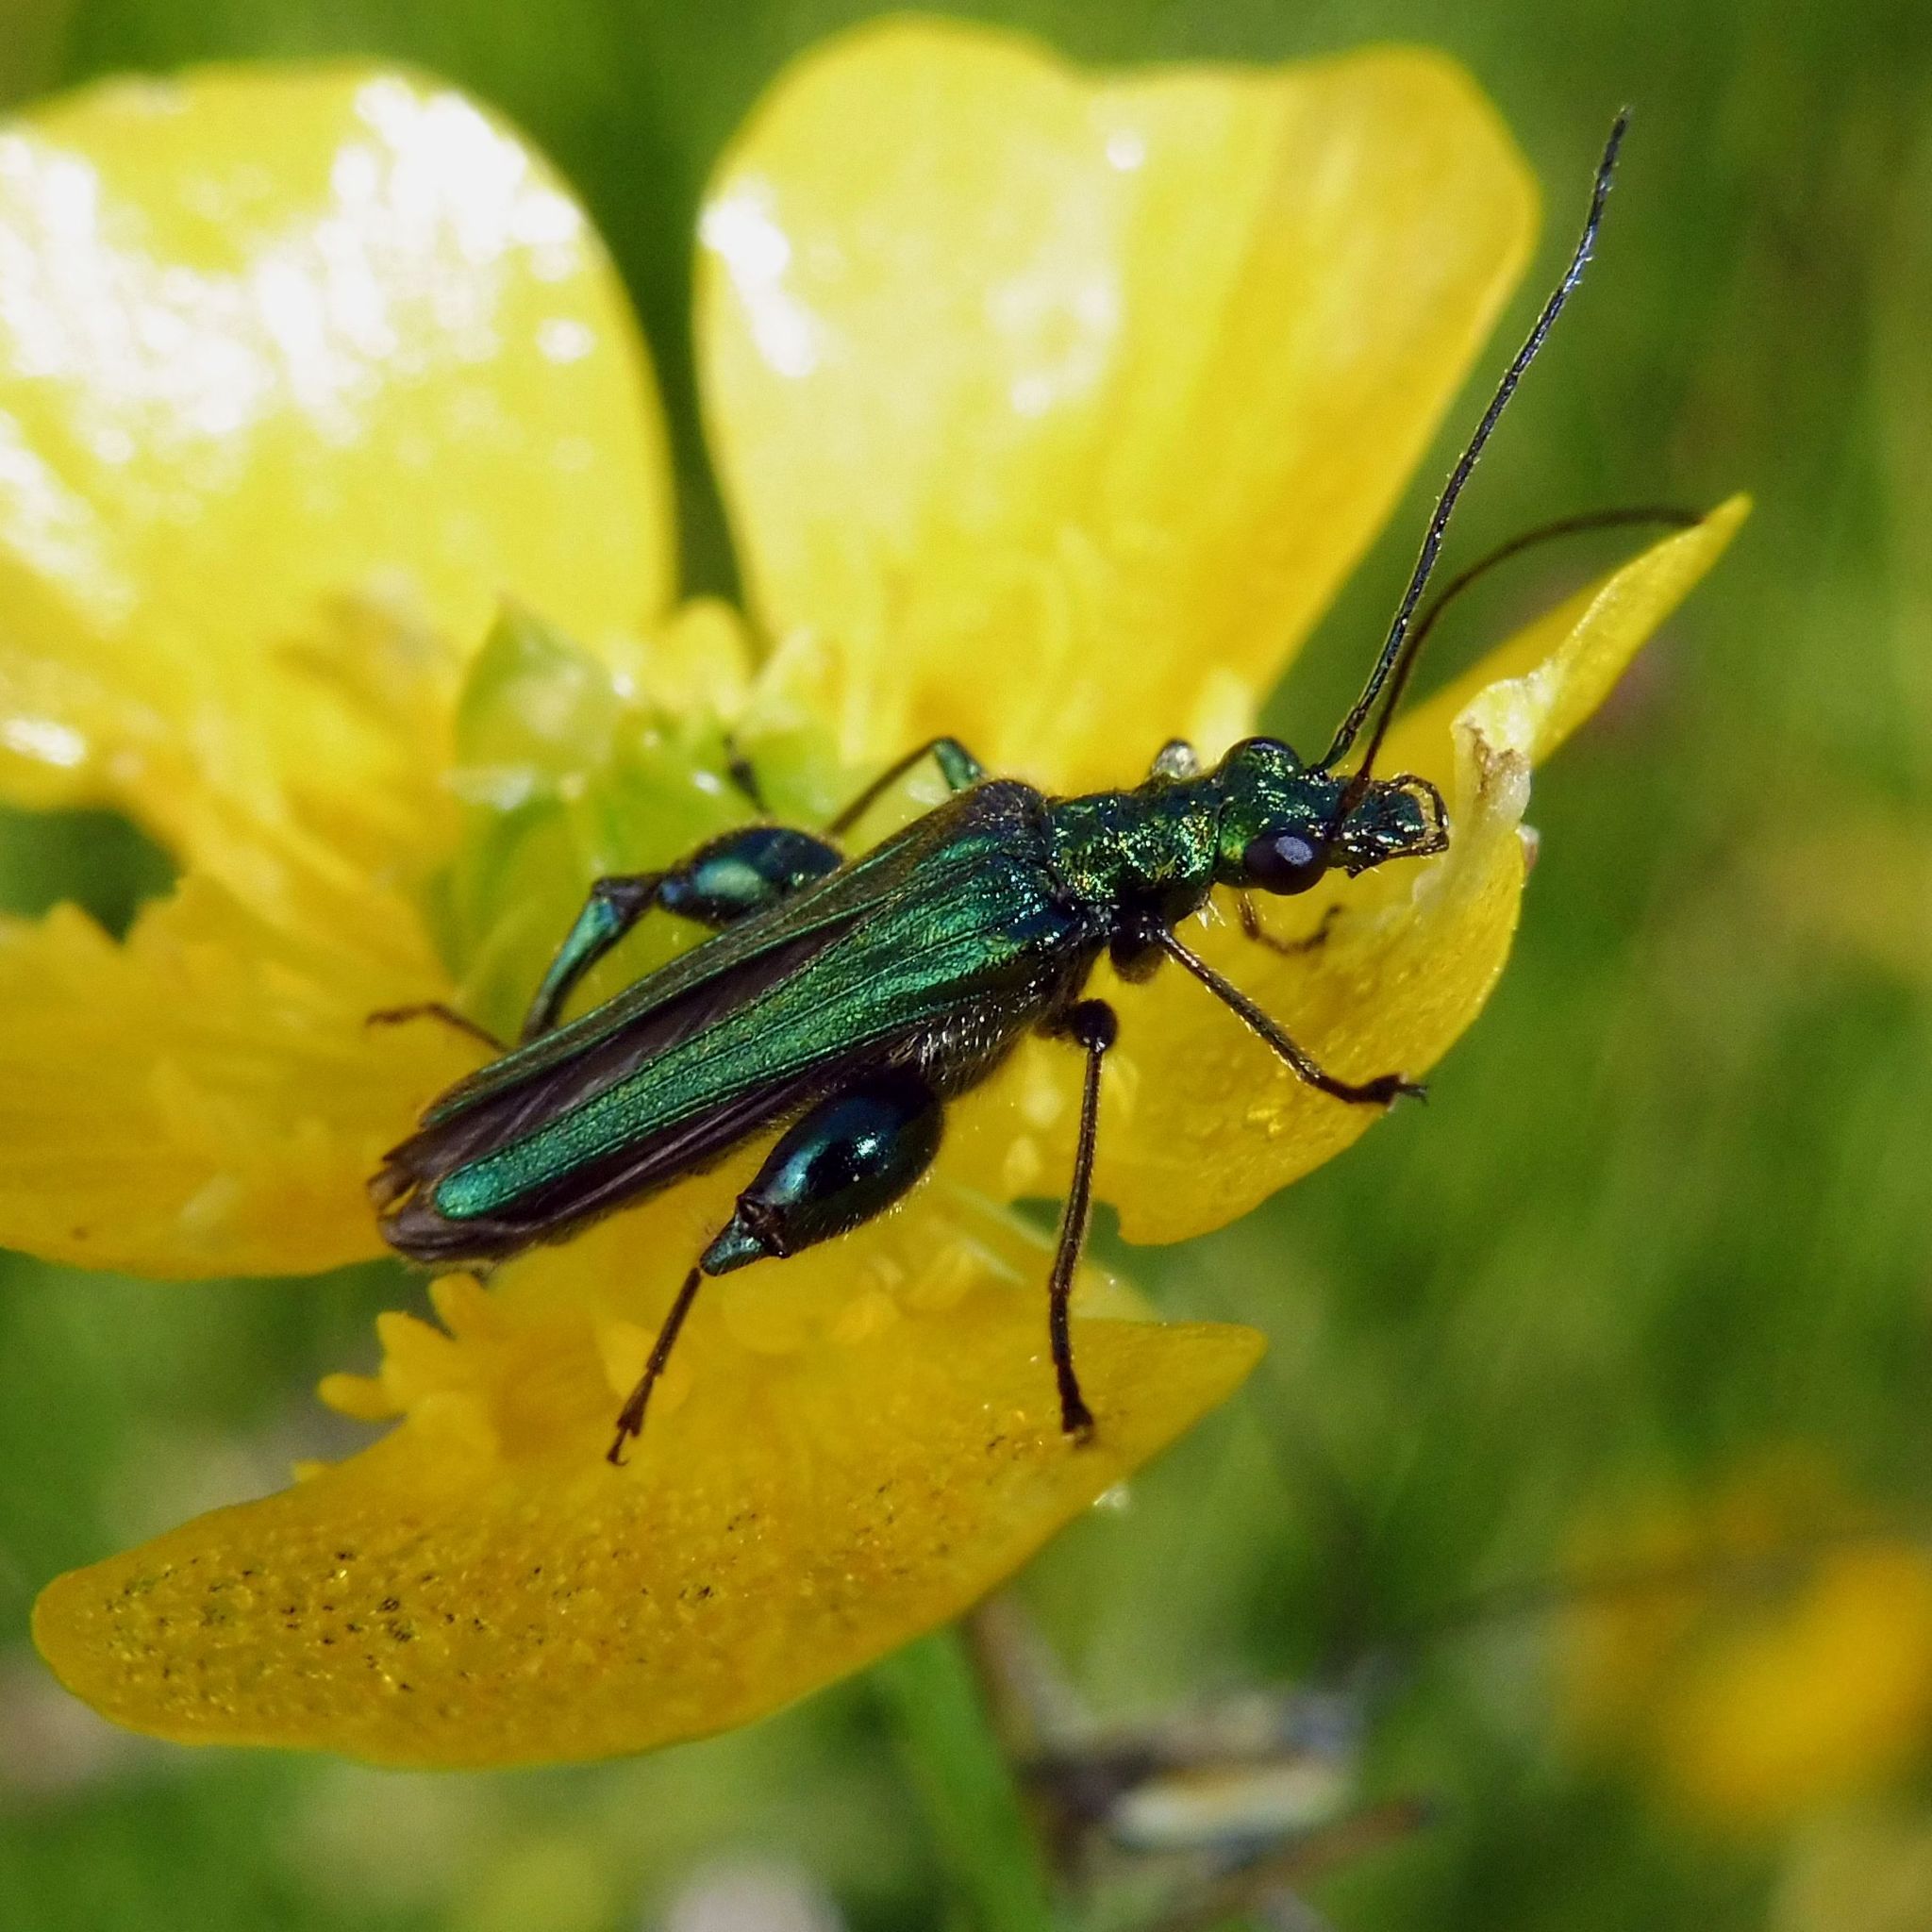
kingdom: Animalia
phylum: Arthropoda
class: Insecta
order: Coleoptera
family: Oedemeridae
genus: Oedemera
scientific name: Oedemera nobilis
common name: Swollen-thighed beetle
